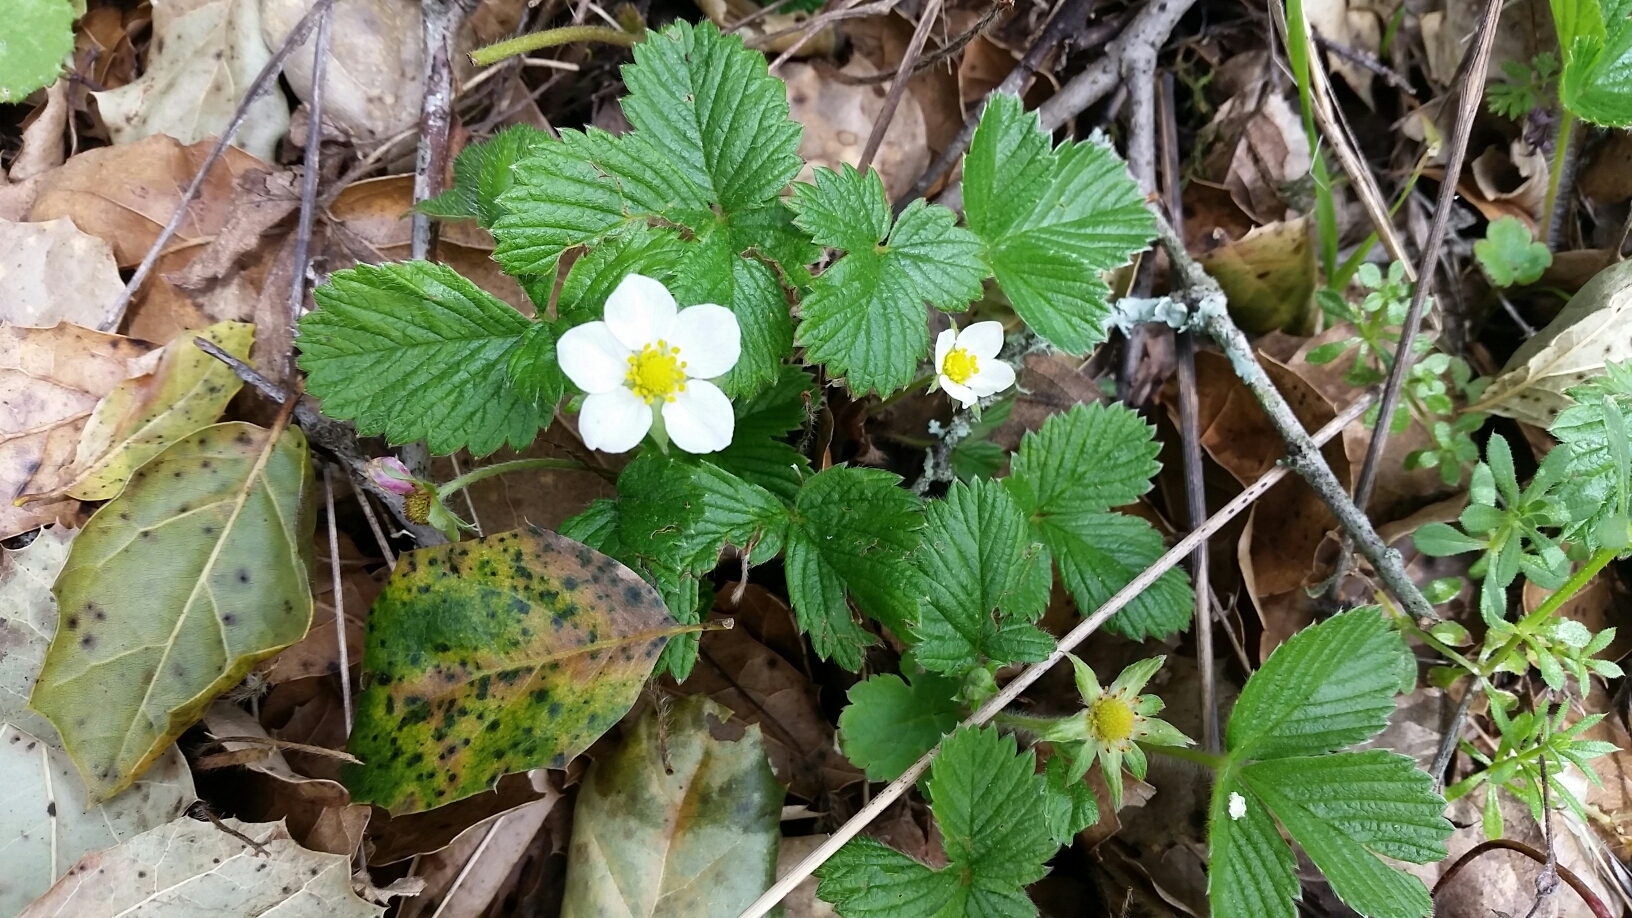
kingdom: Plantae
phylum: Tracheophyta
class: Magnoliopsida
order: Rosales
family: Rosaceae
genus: Fragaria
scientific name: Fragaria vesca
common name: Wild strawberry
